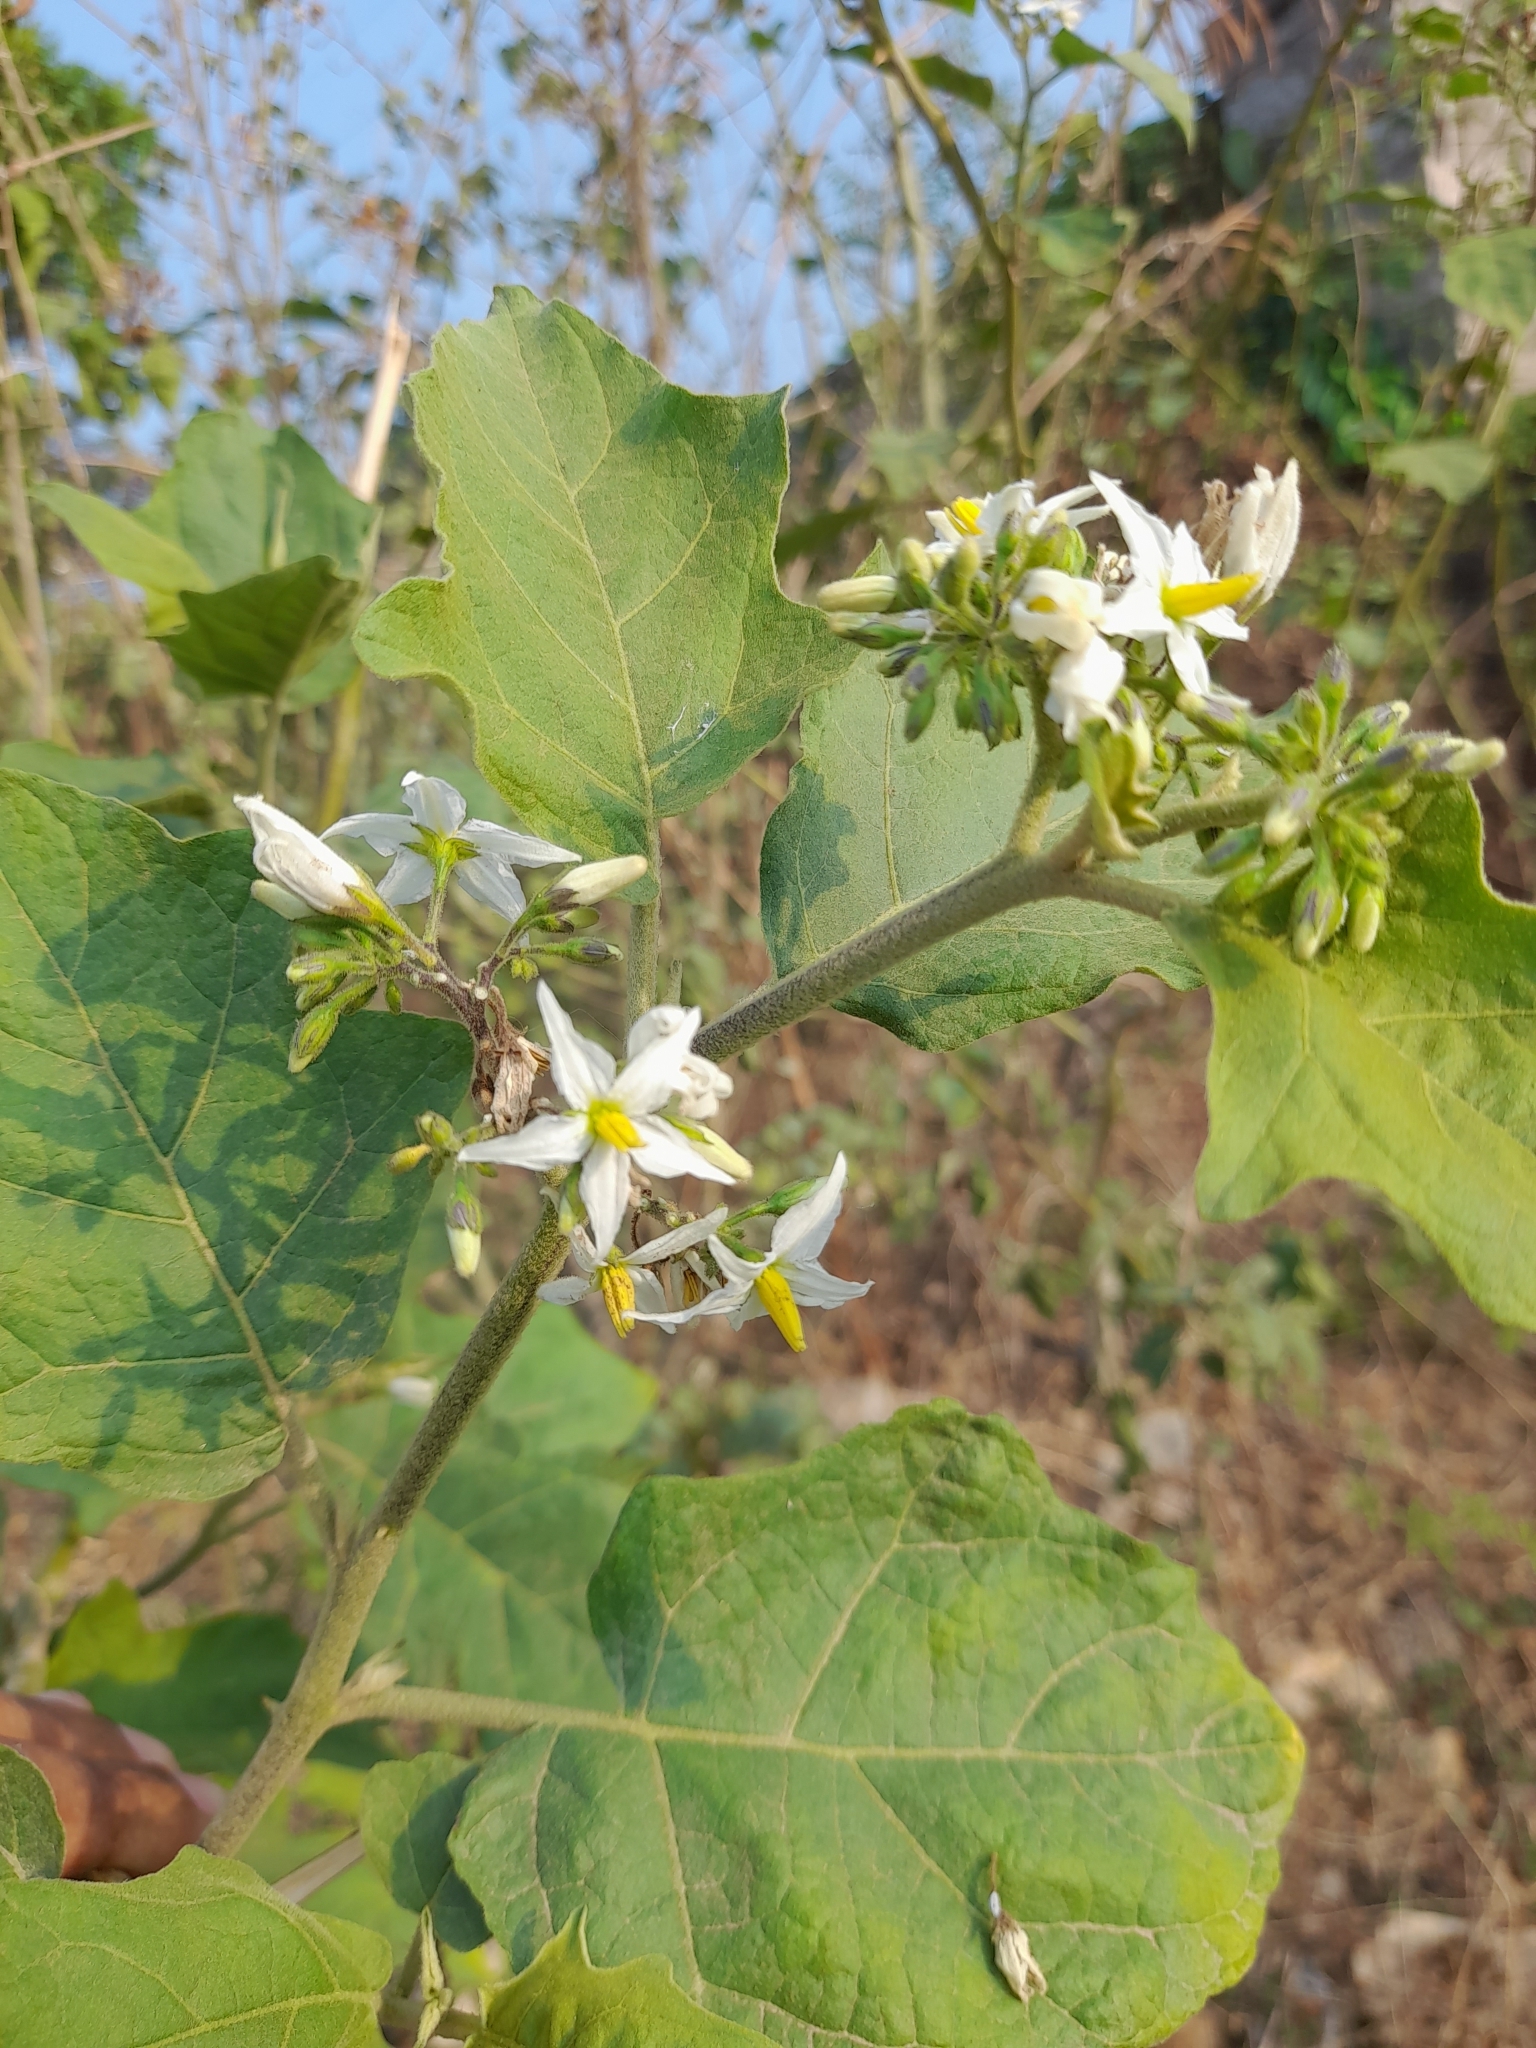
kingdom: Plantae
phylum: Tracheophyta
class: Magnoliopsida
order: Solanales
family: Solanaceae
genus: Solanum
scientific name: Solanum torvum
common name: Turkey berry
